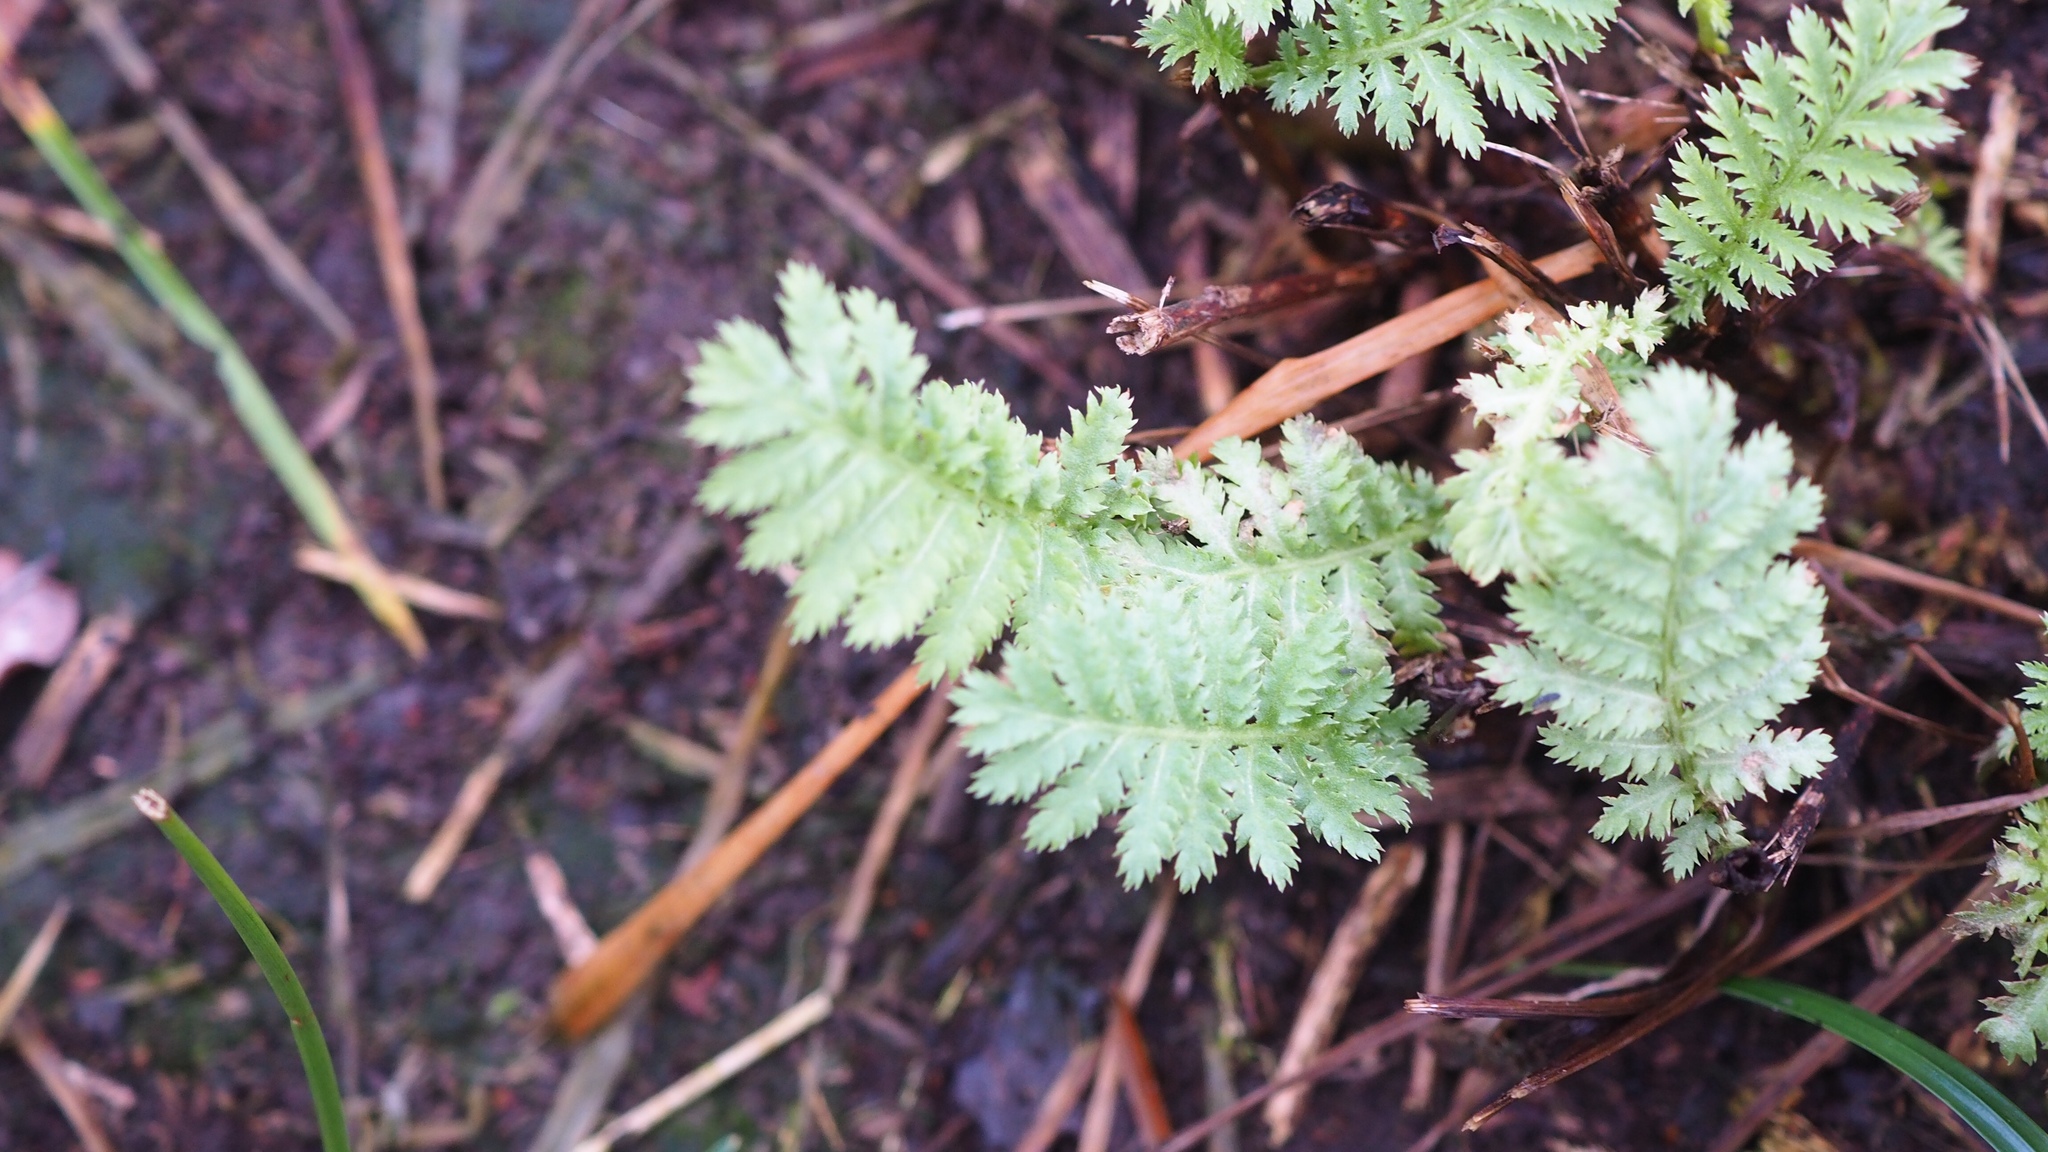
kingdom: Plantae
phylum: Tracheophyta
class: Magnoliopsida
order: Asterales
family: Asteraceae
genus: Tanacetum
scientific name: Tanacetum vulgare
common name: Common tansy
